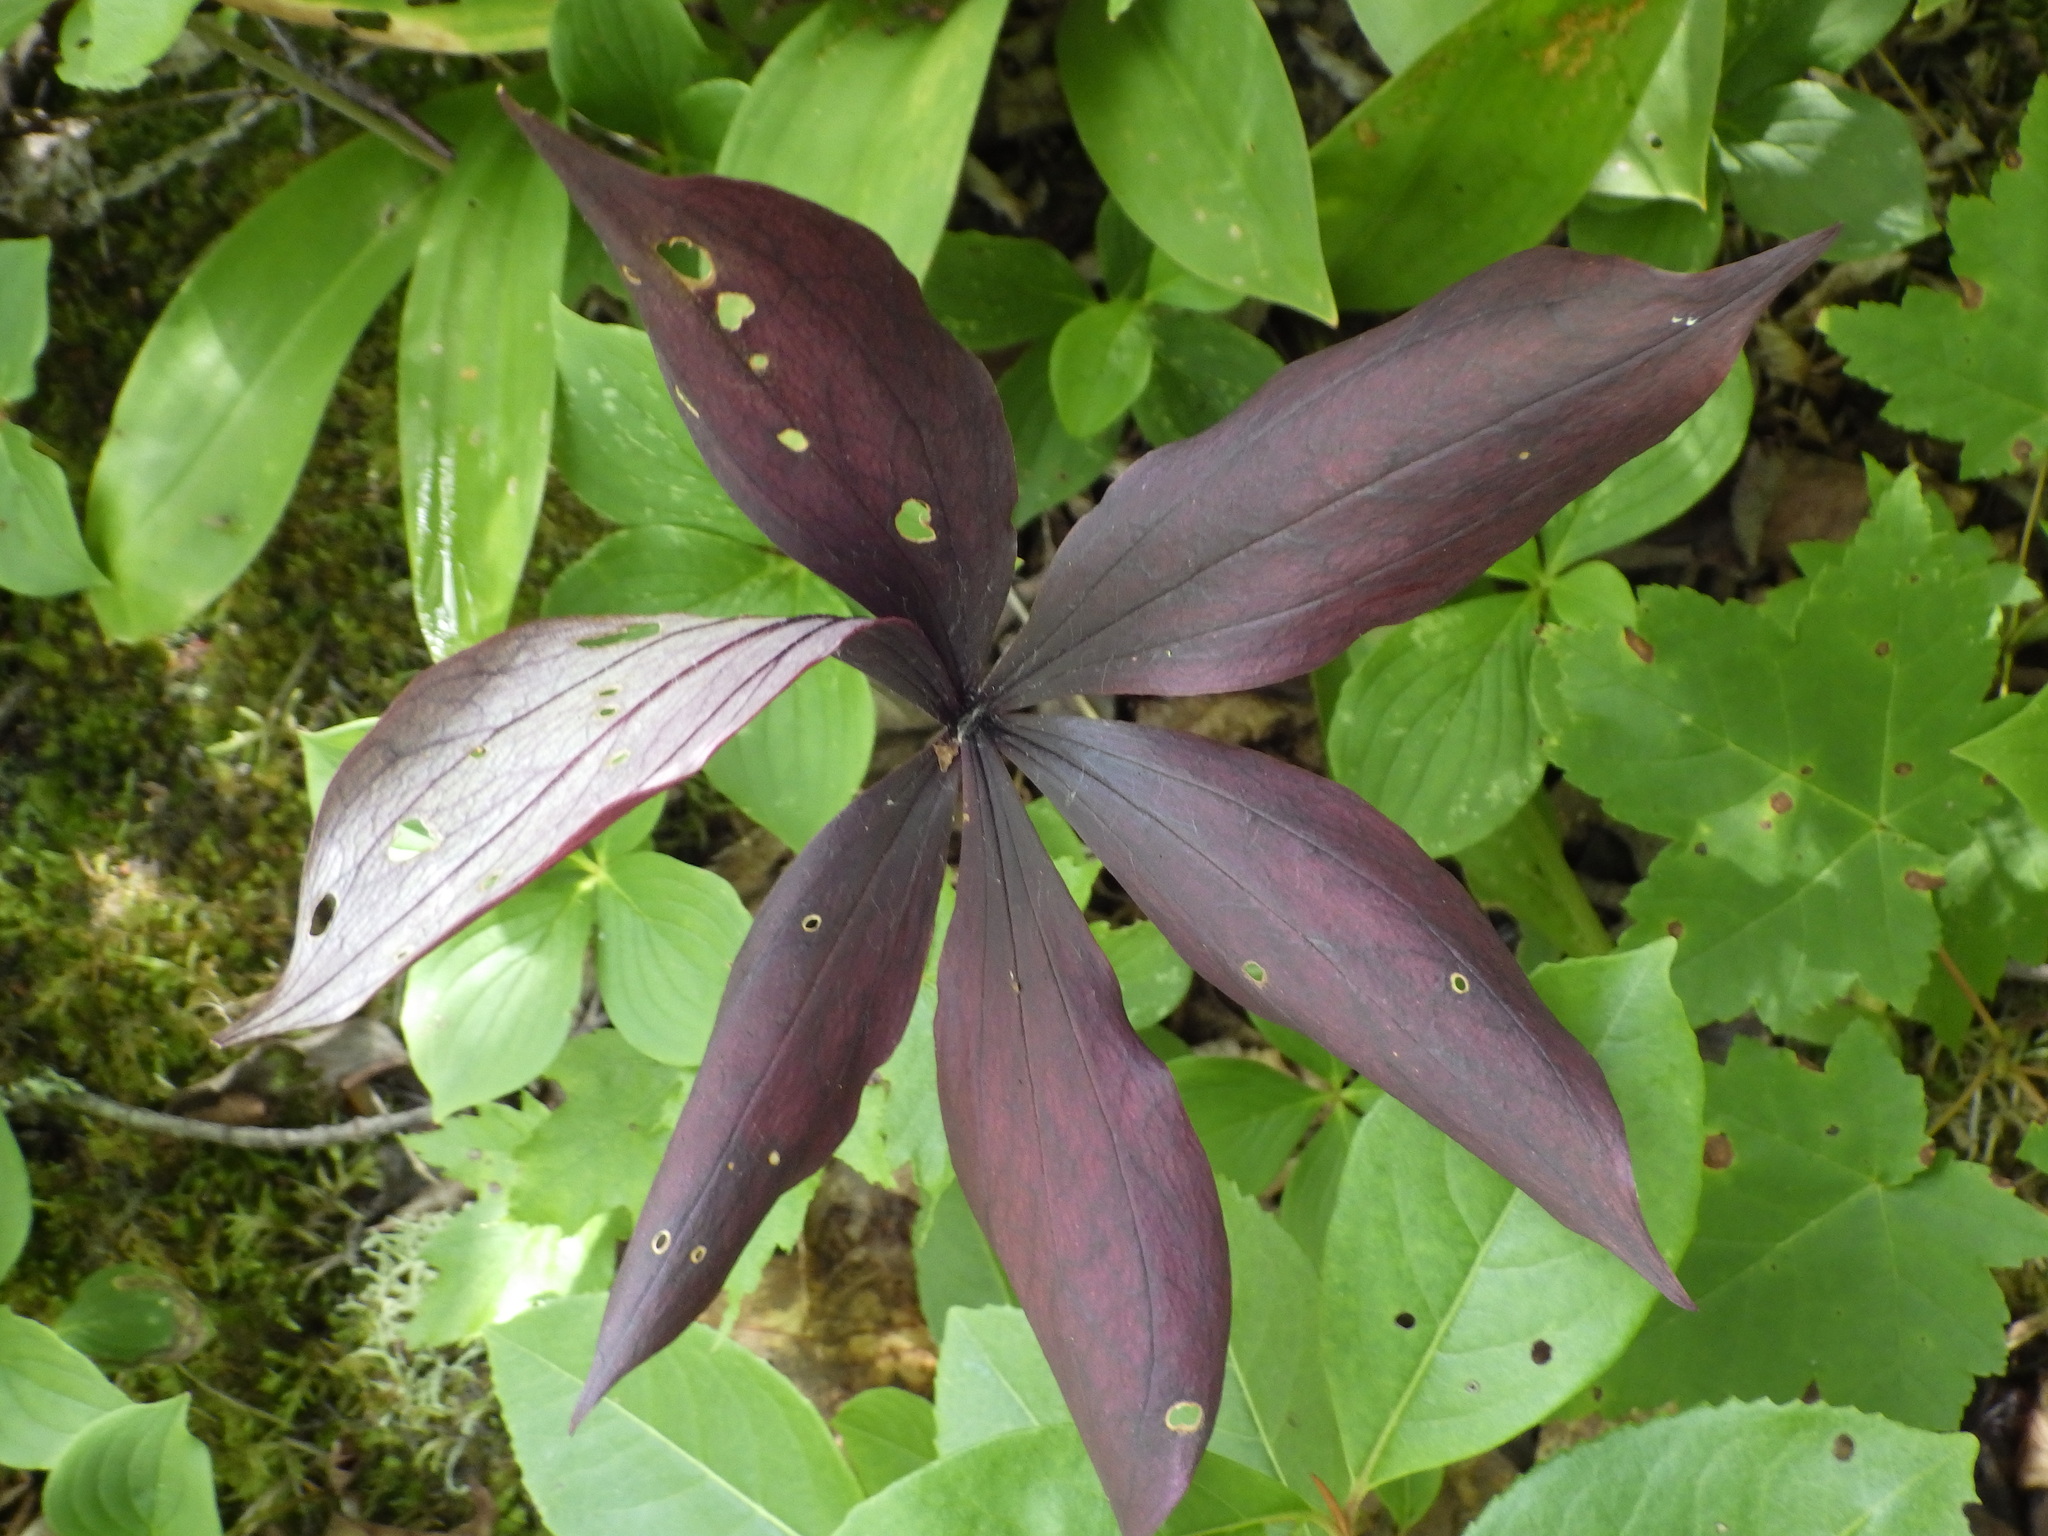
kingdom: Plantae
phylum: Tracheophyta
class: Liliopsida
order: Liliales
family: Liliaceae
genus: Medeola
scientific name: Medeola virginiana
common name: Indian cucumber-root
